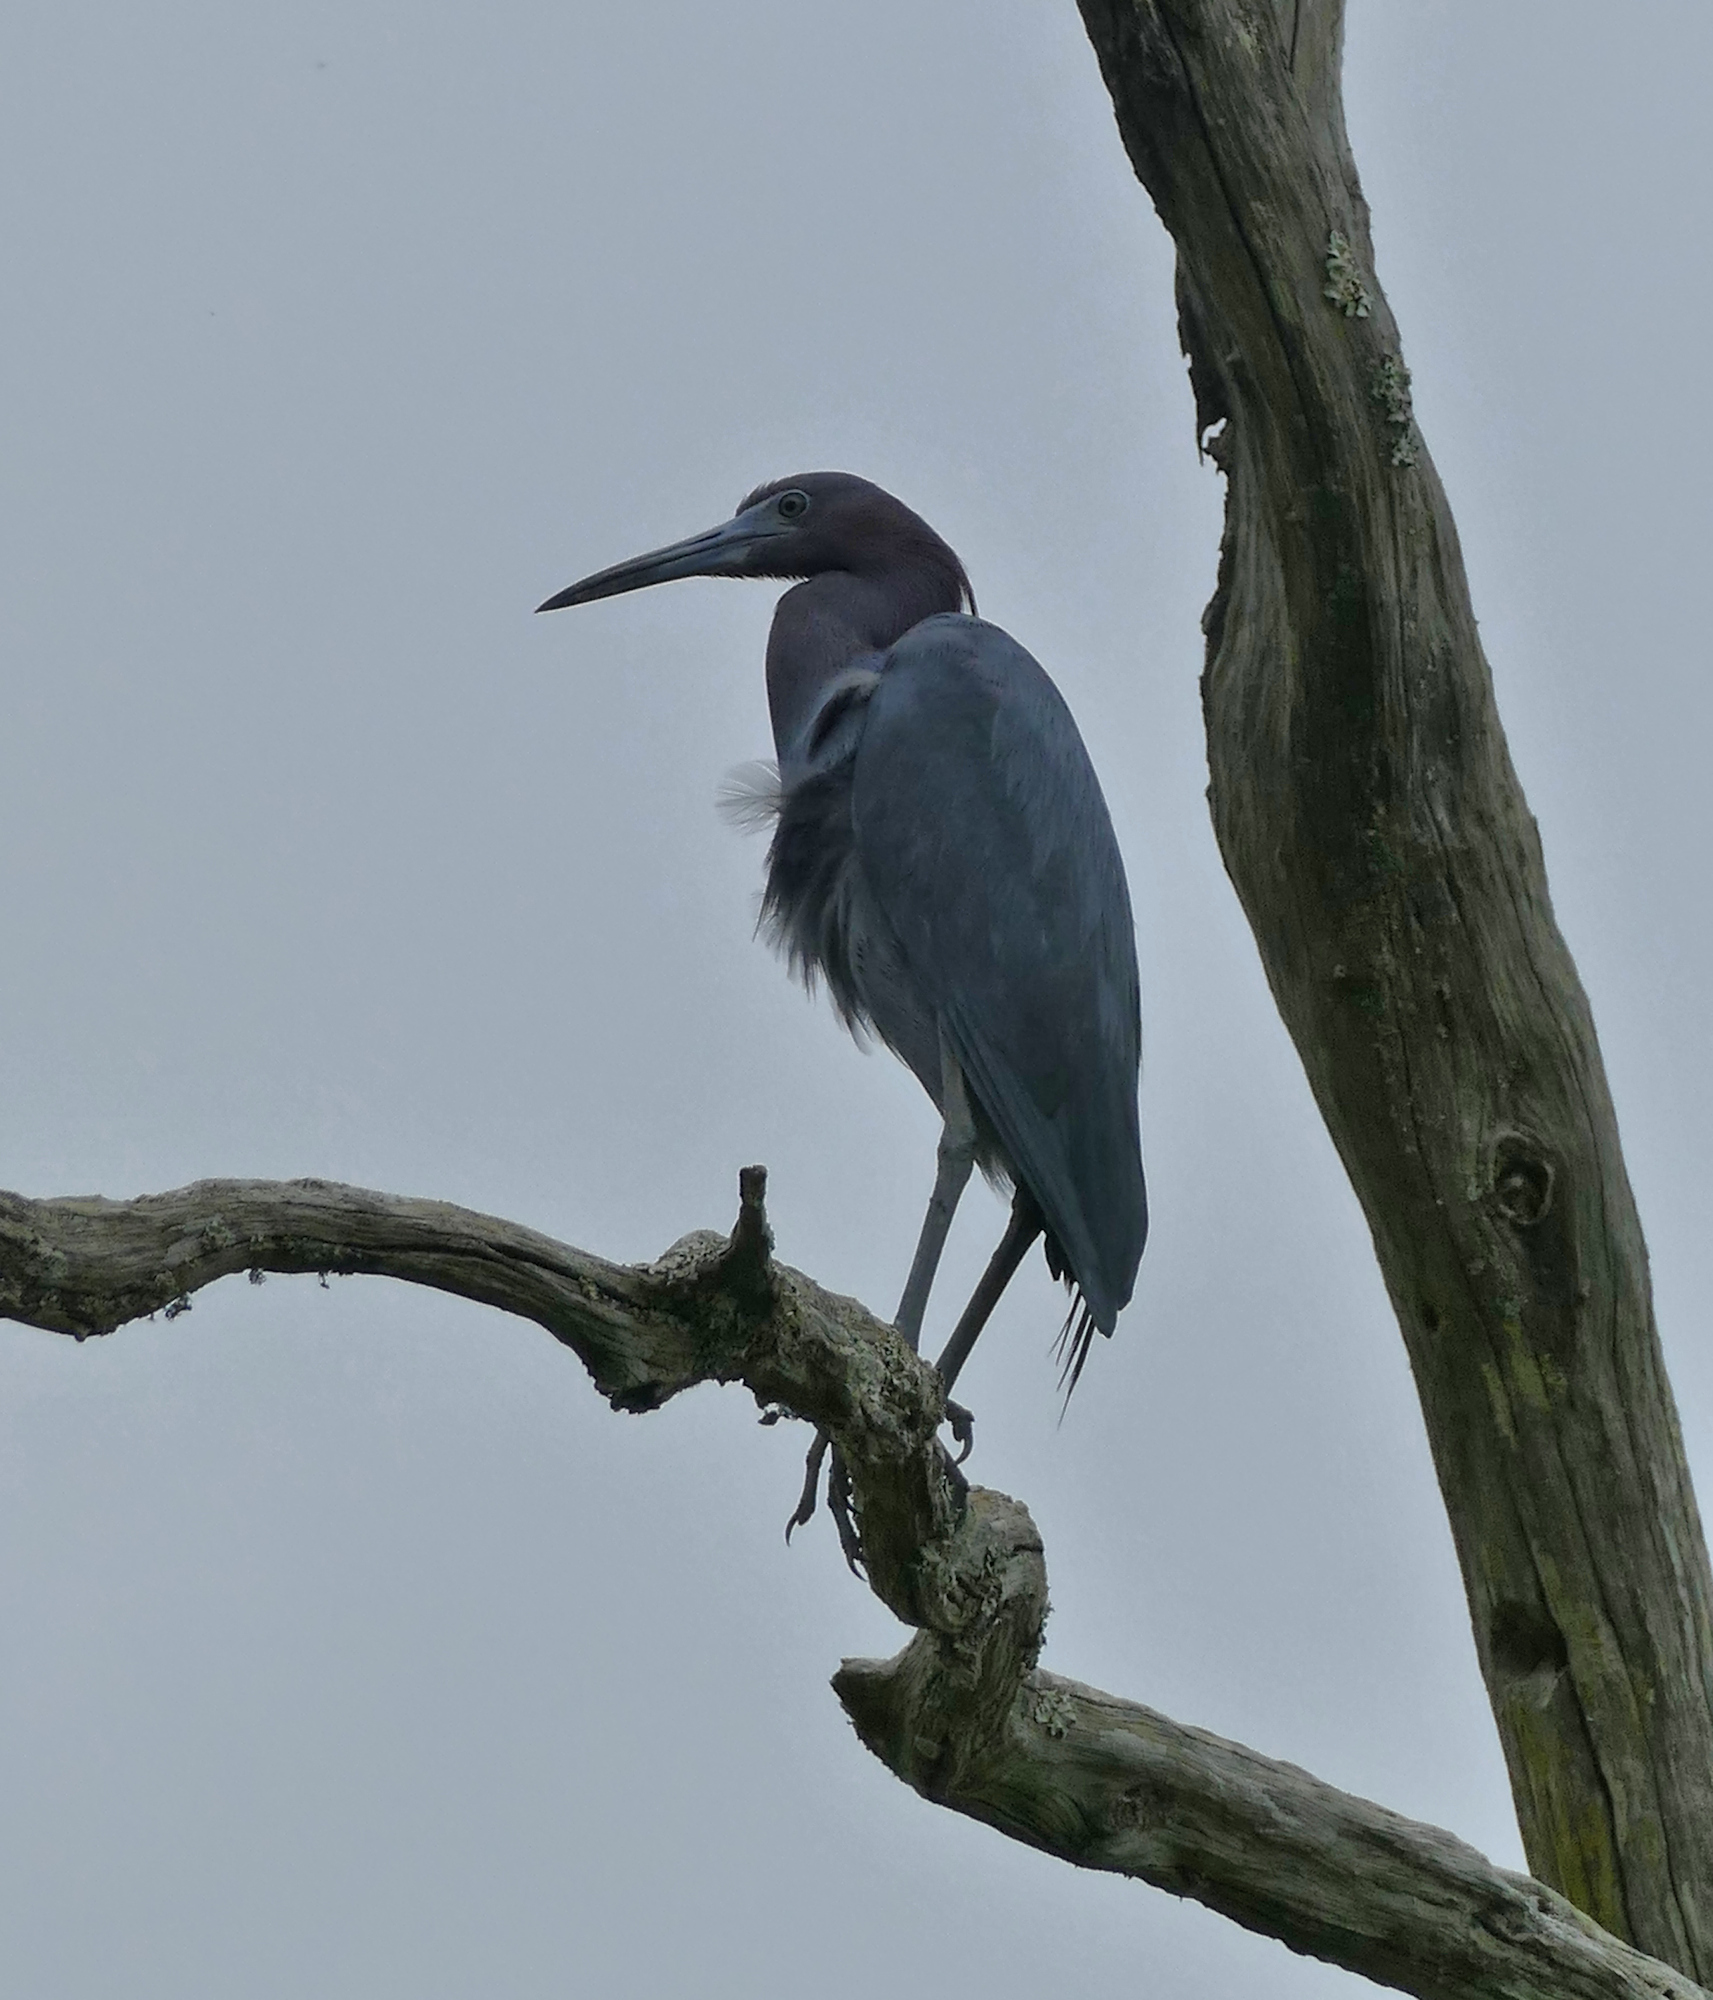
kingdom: Animalia
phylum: Chordata
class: Aves
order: Pelecaniformes
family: Ardeidae
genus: Egretta
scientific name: Egretta caerulea
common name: Little blue heron
